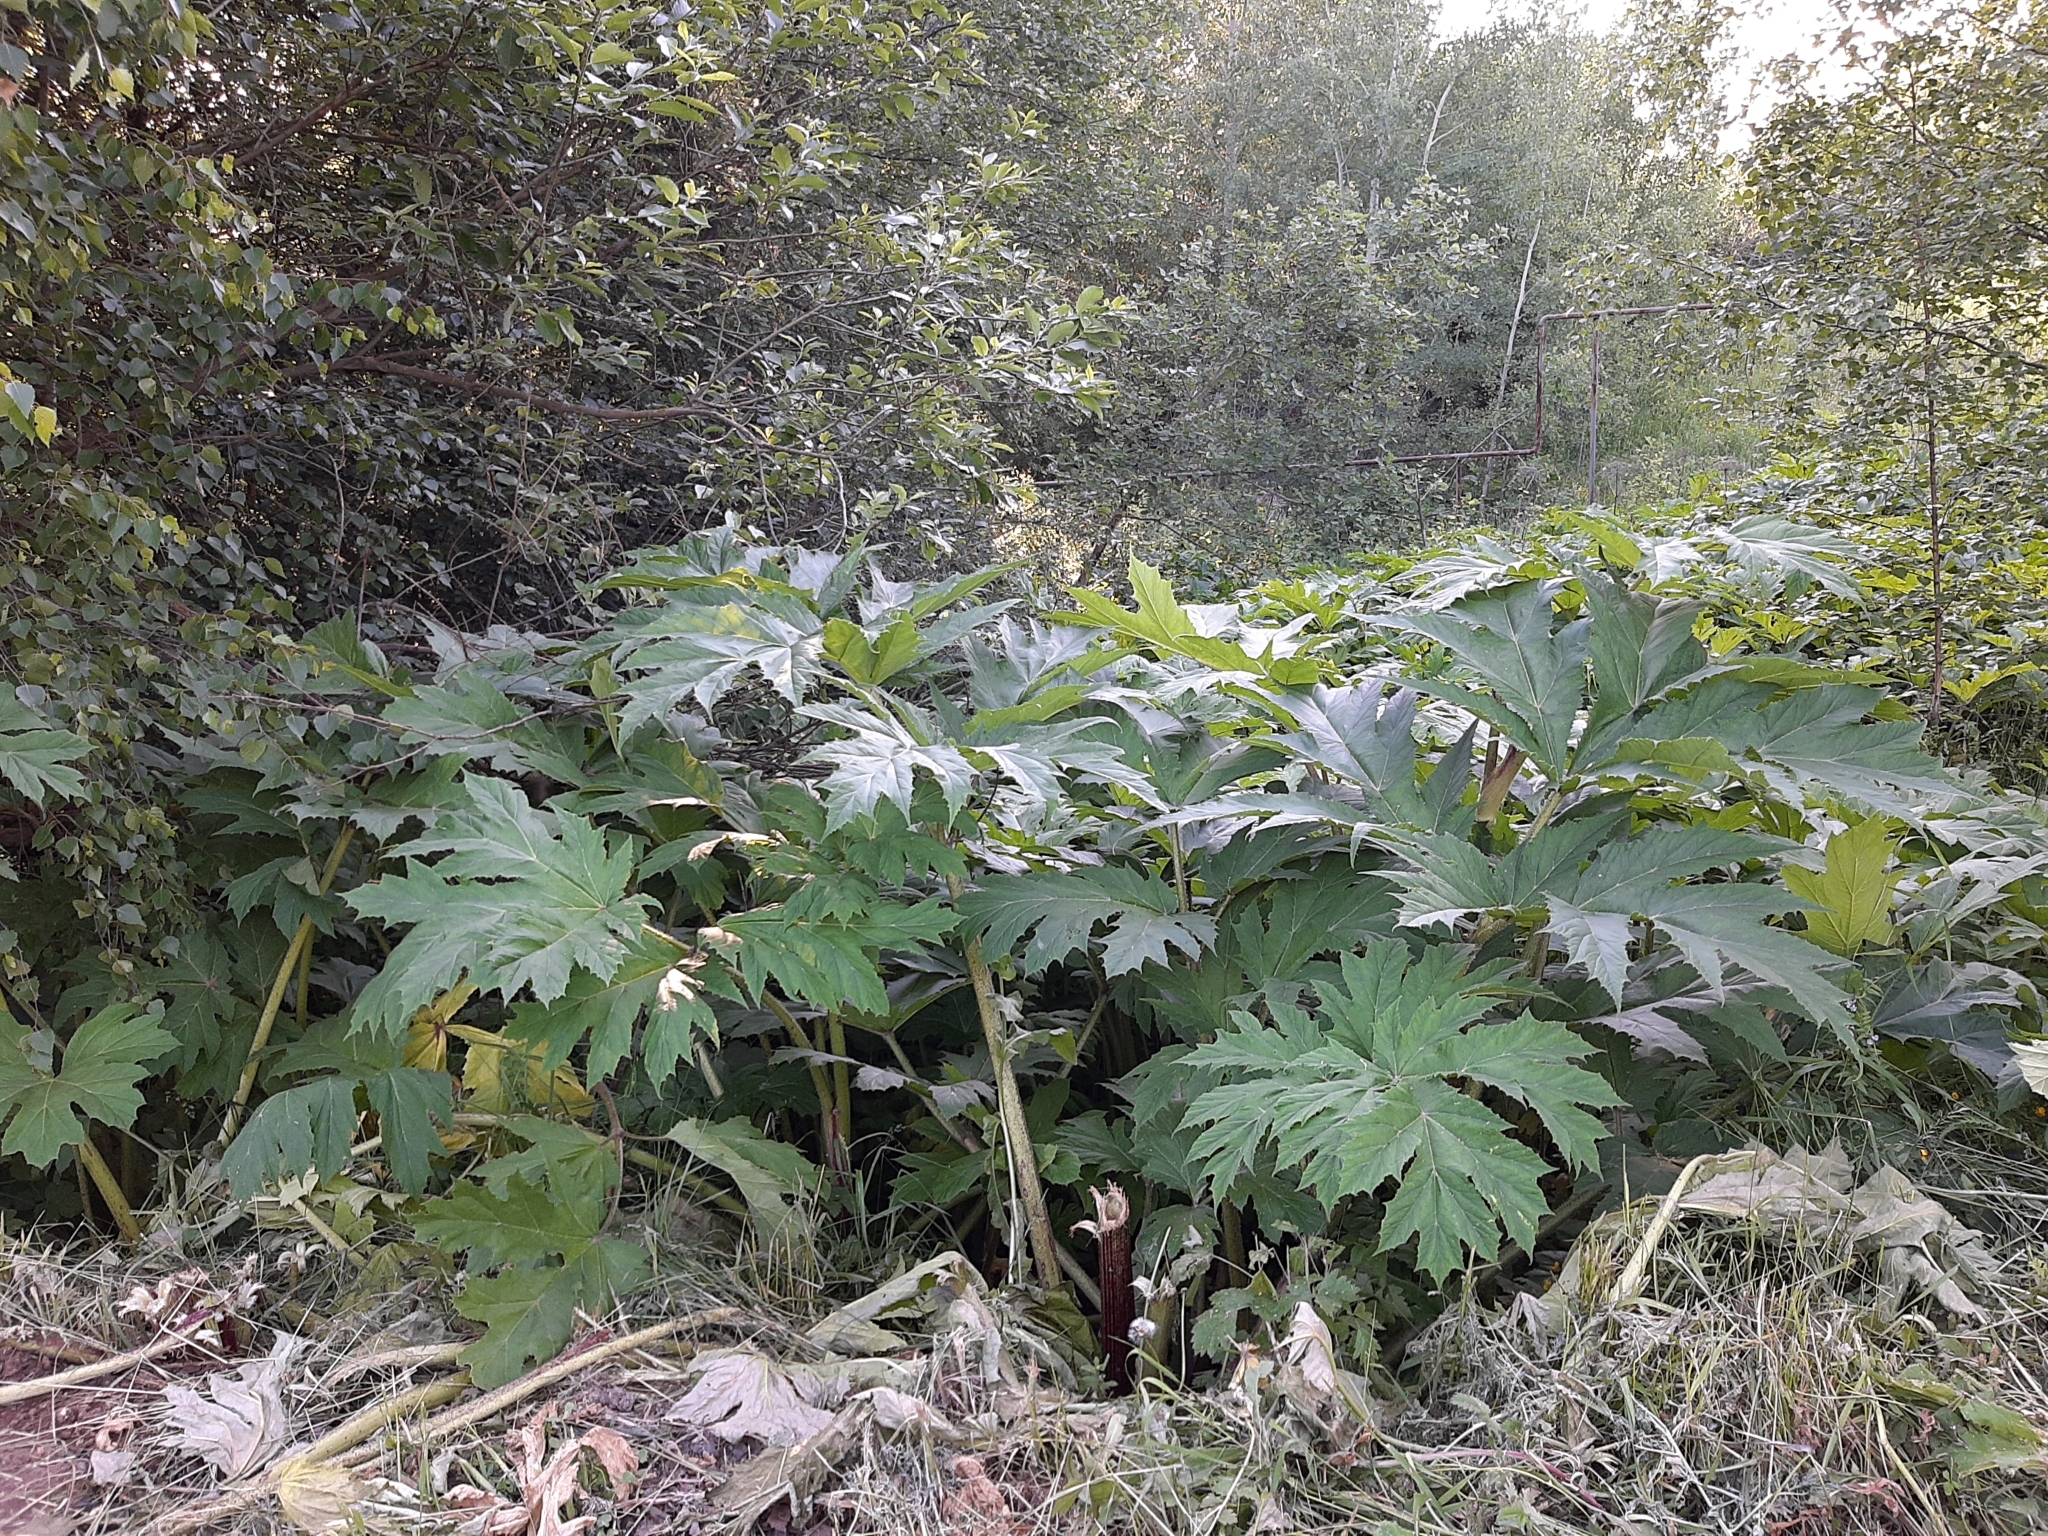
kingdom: Plantae
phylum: Tracheophyta
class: Magnoliopsida
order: Apiales
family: Apiaceae
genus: Heracleum
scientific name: Heracleum sosnowskyi
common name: Sosnowsky's hogweed
